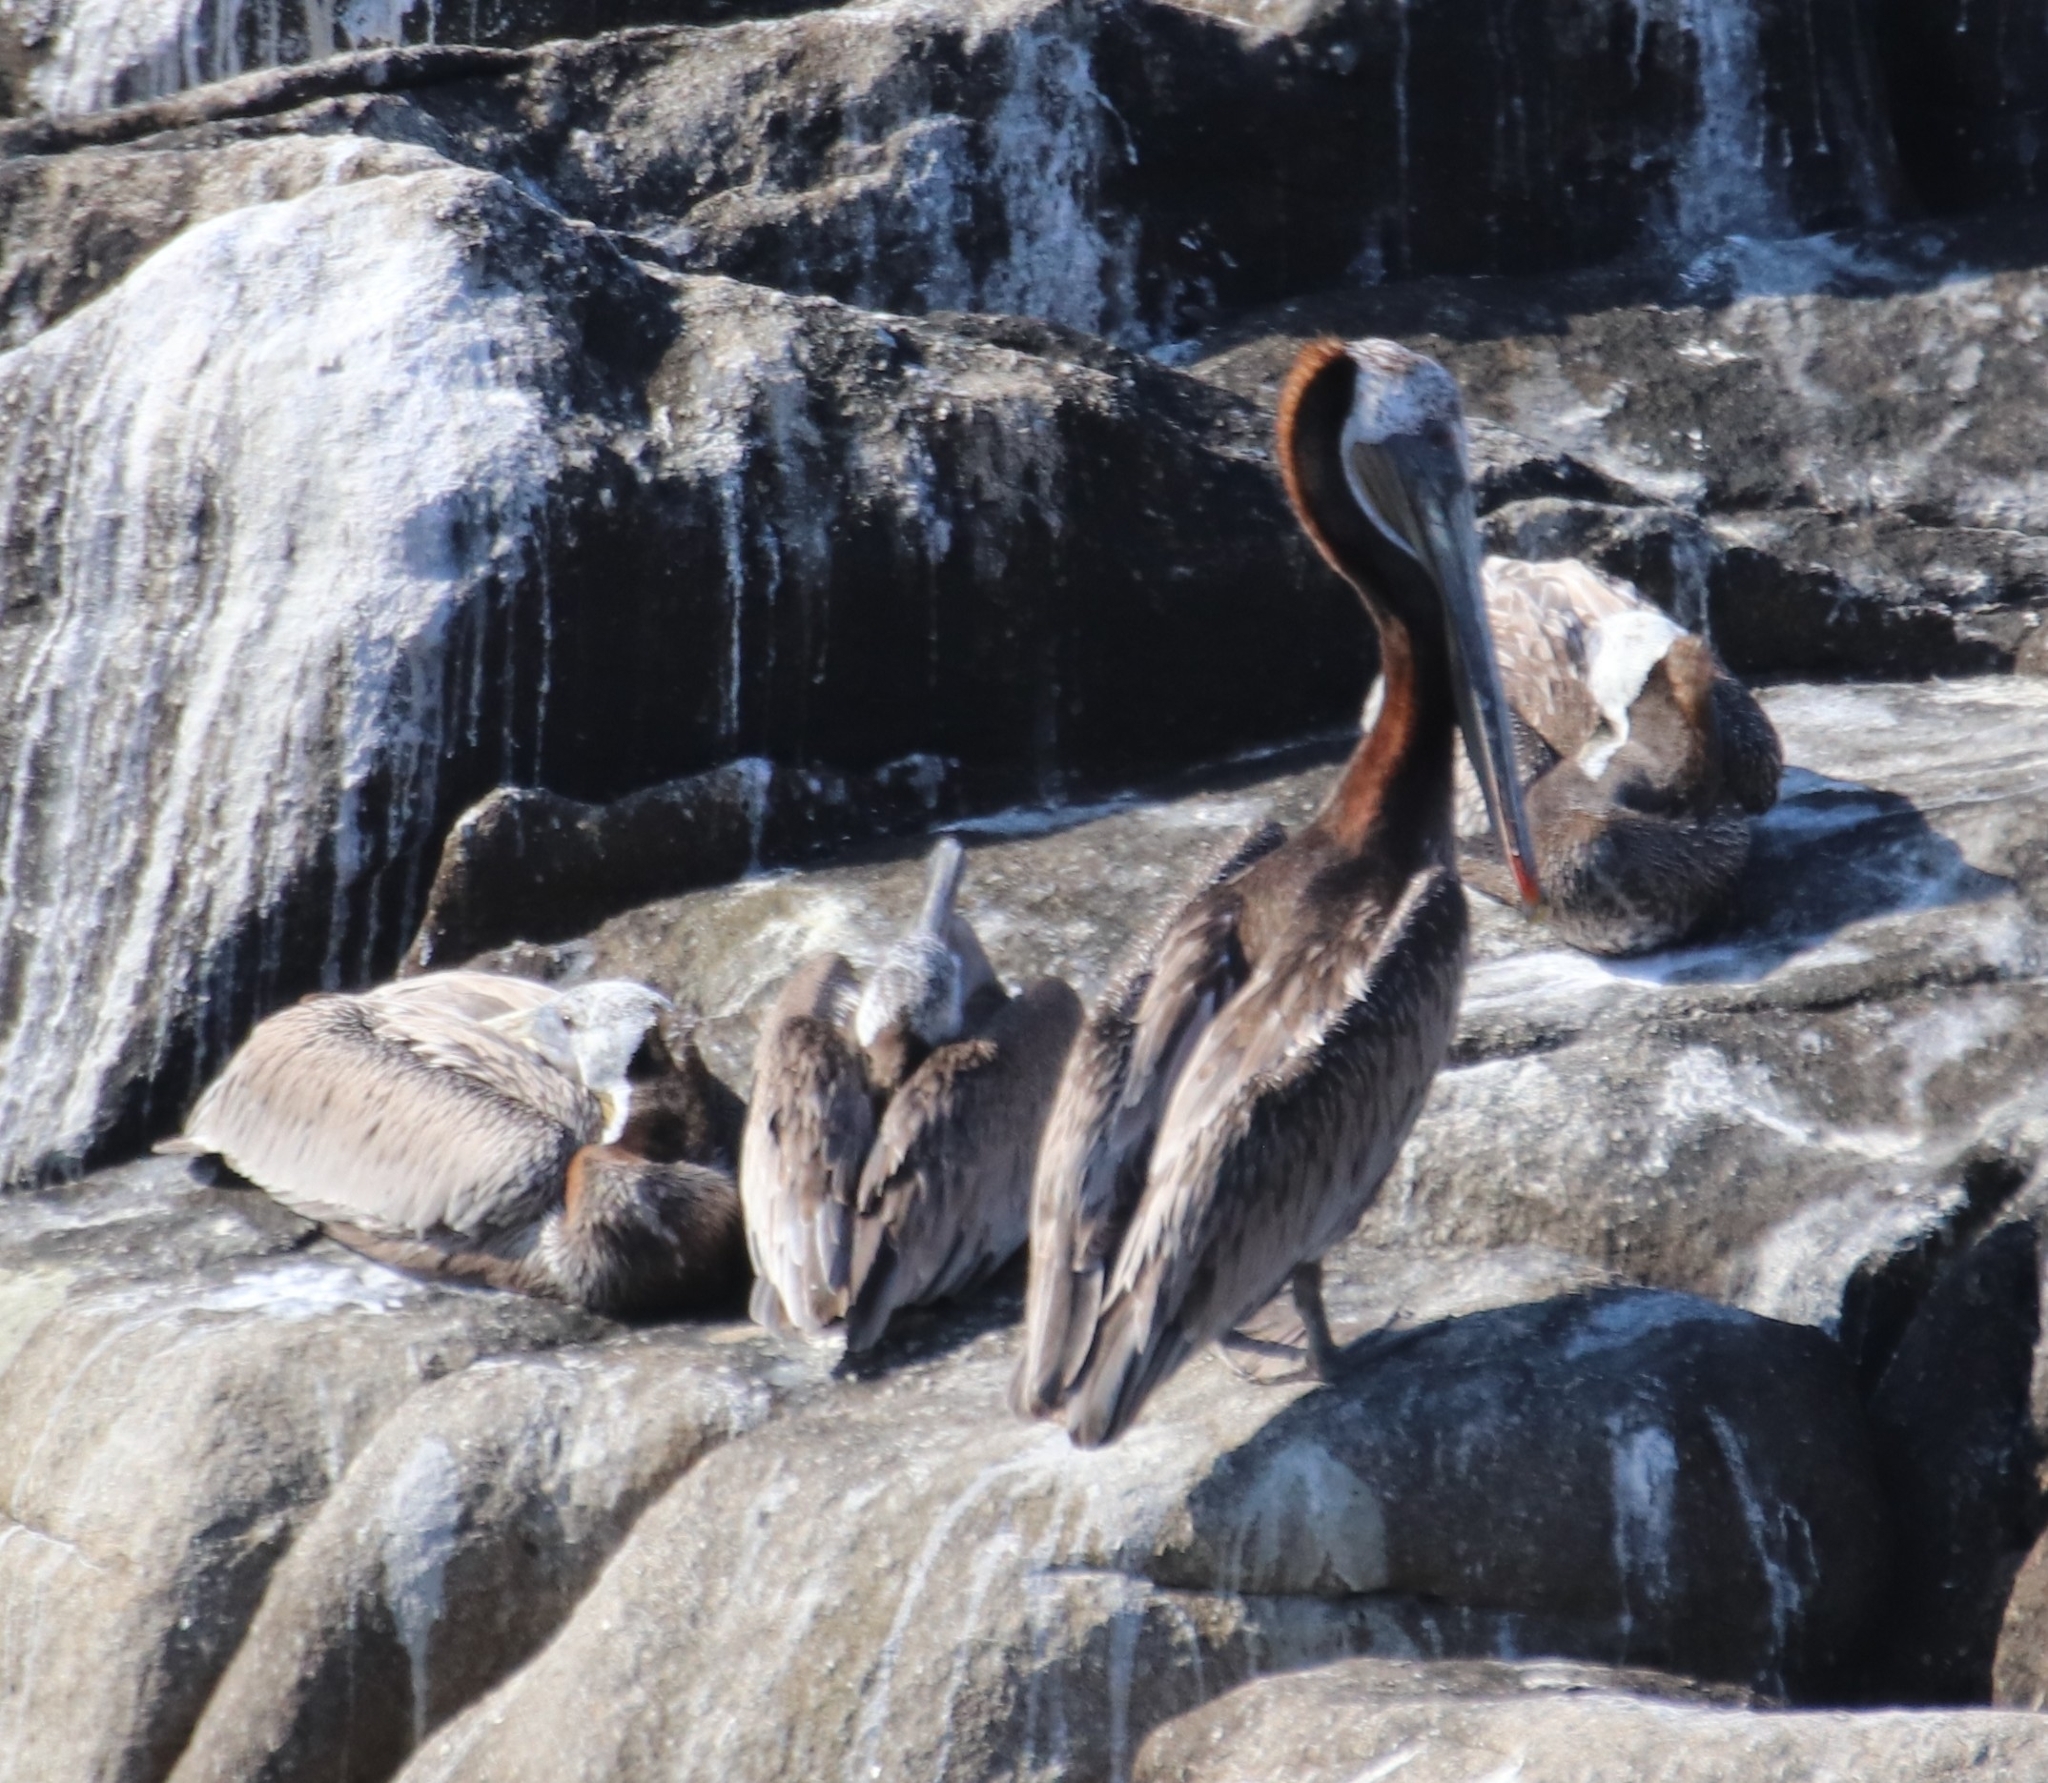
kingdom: Animalia
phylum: Chordata
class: Aves
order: Pelecaniformes
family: Pelecanidae
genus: Pelecanus
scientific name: Pelecanus occidentalis
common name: Brown pelican
